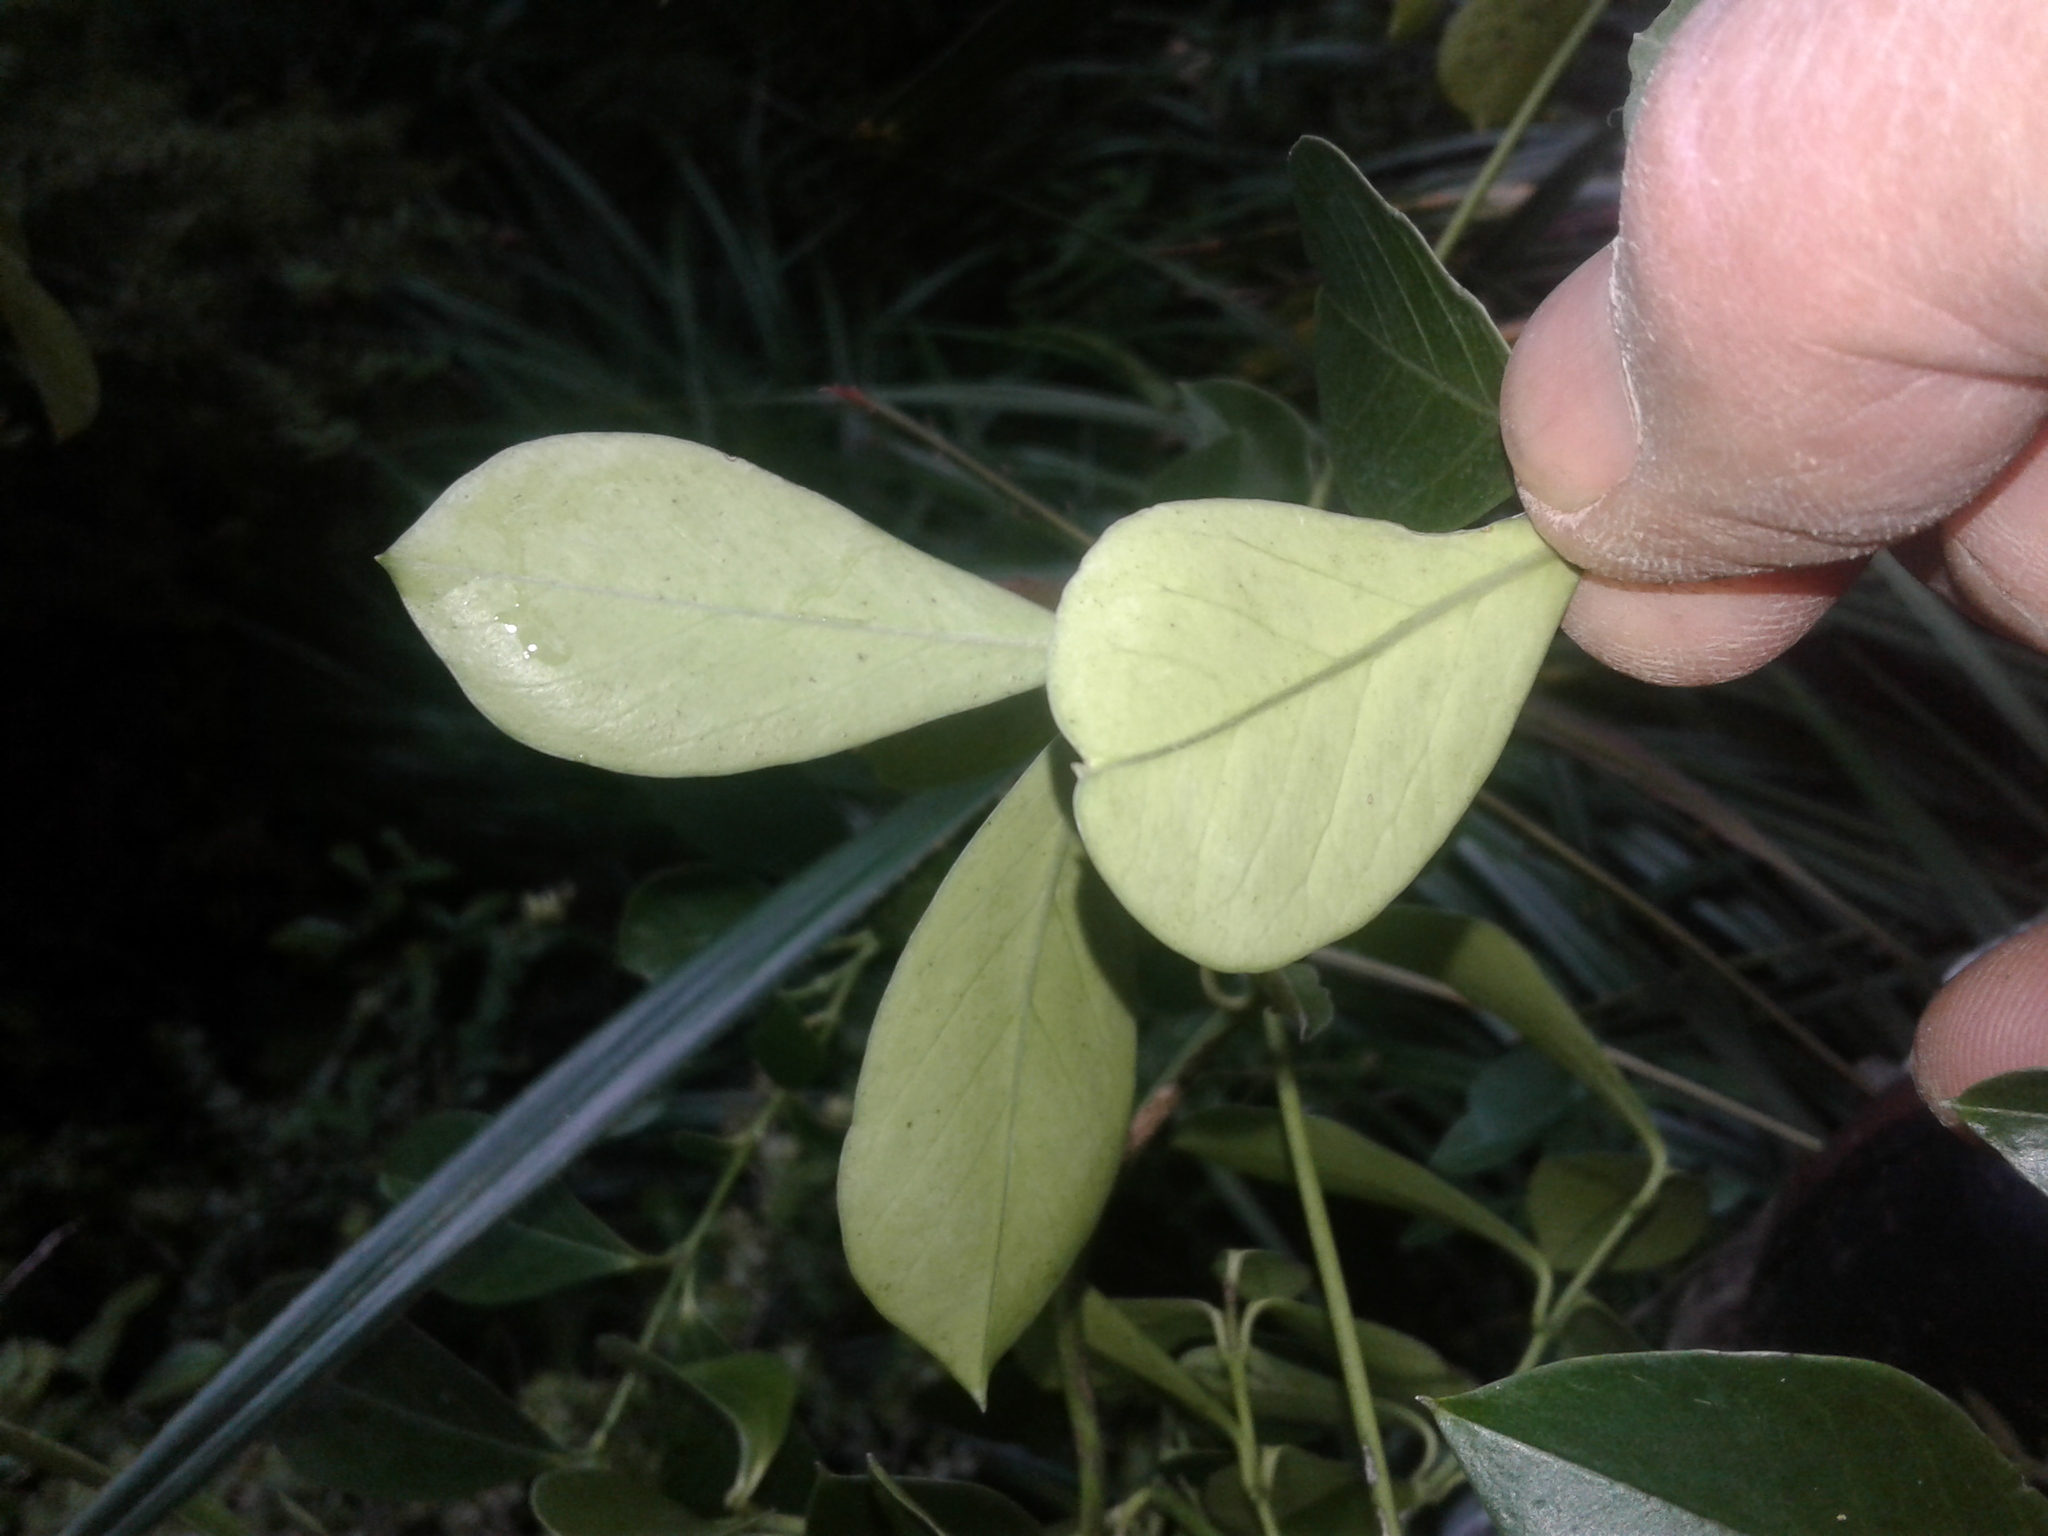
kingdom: Plantae
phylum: Tracheophyta
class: Magnoliopsida
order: Gentianales
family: Apocynaceae
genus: Parsonsia
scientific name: Parsonsia heterophylla
